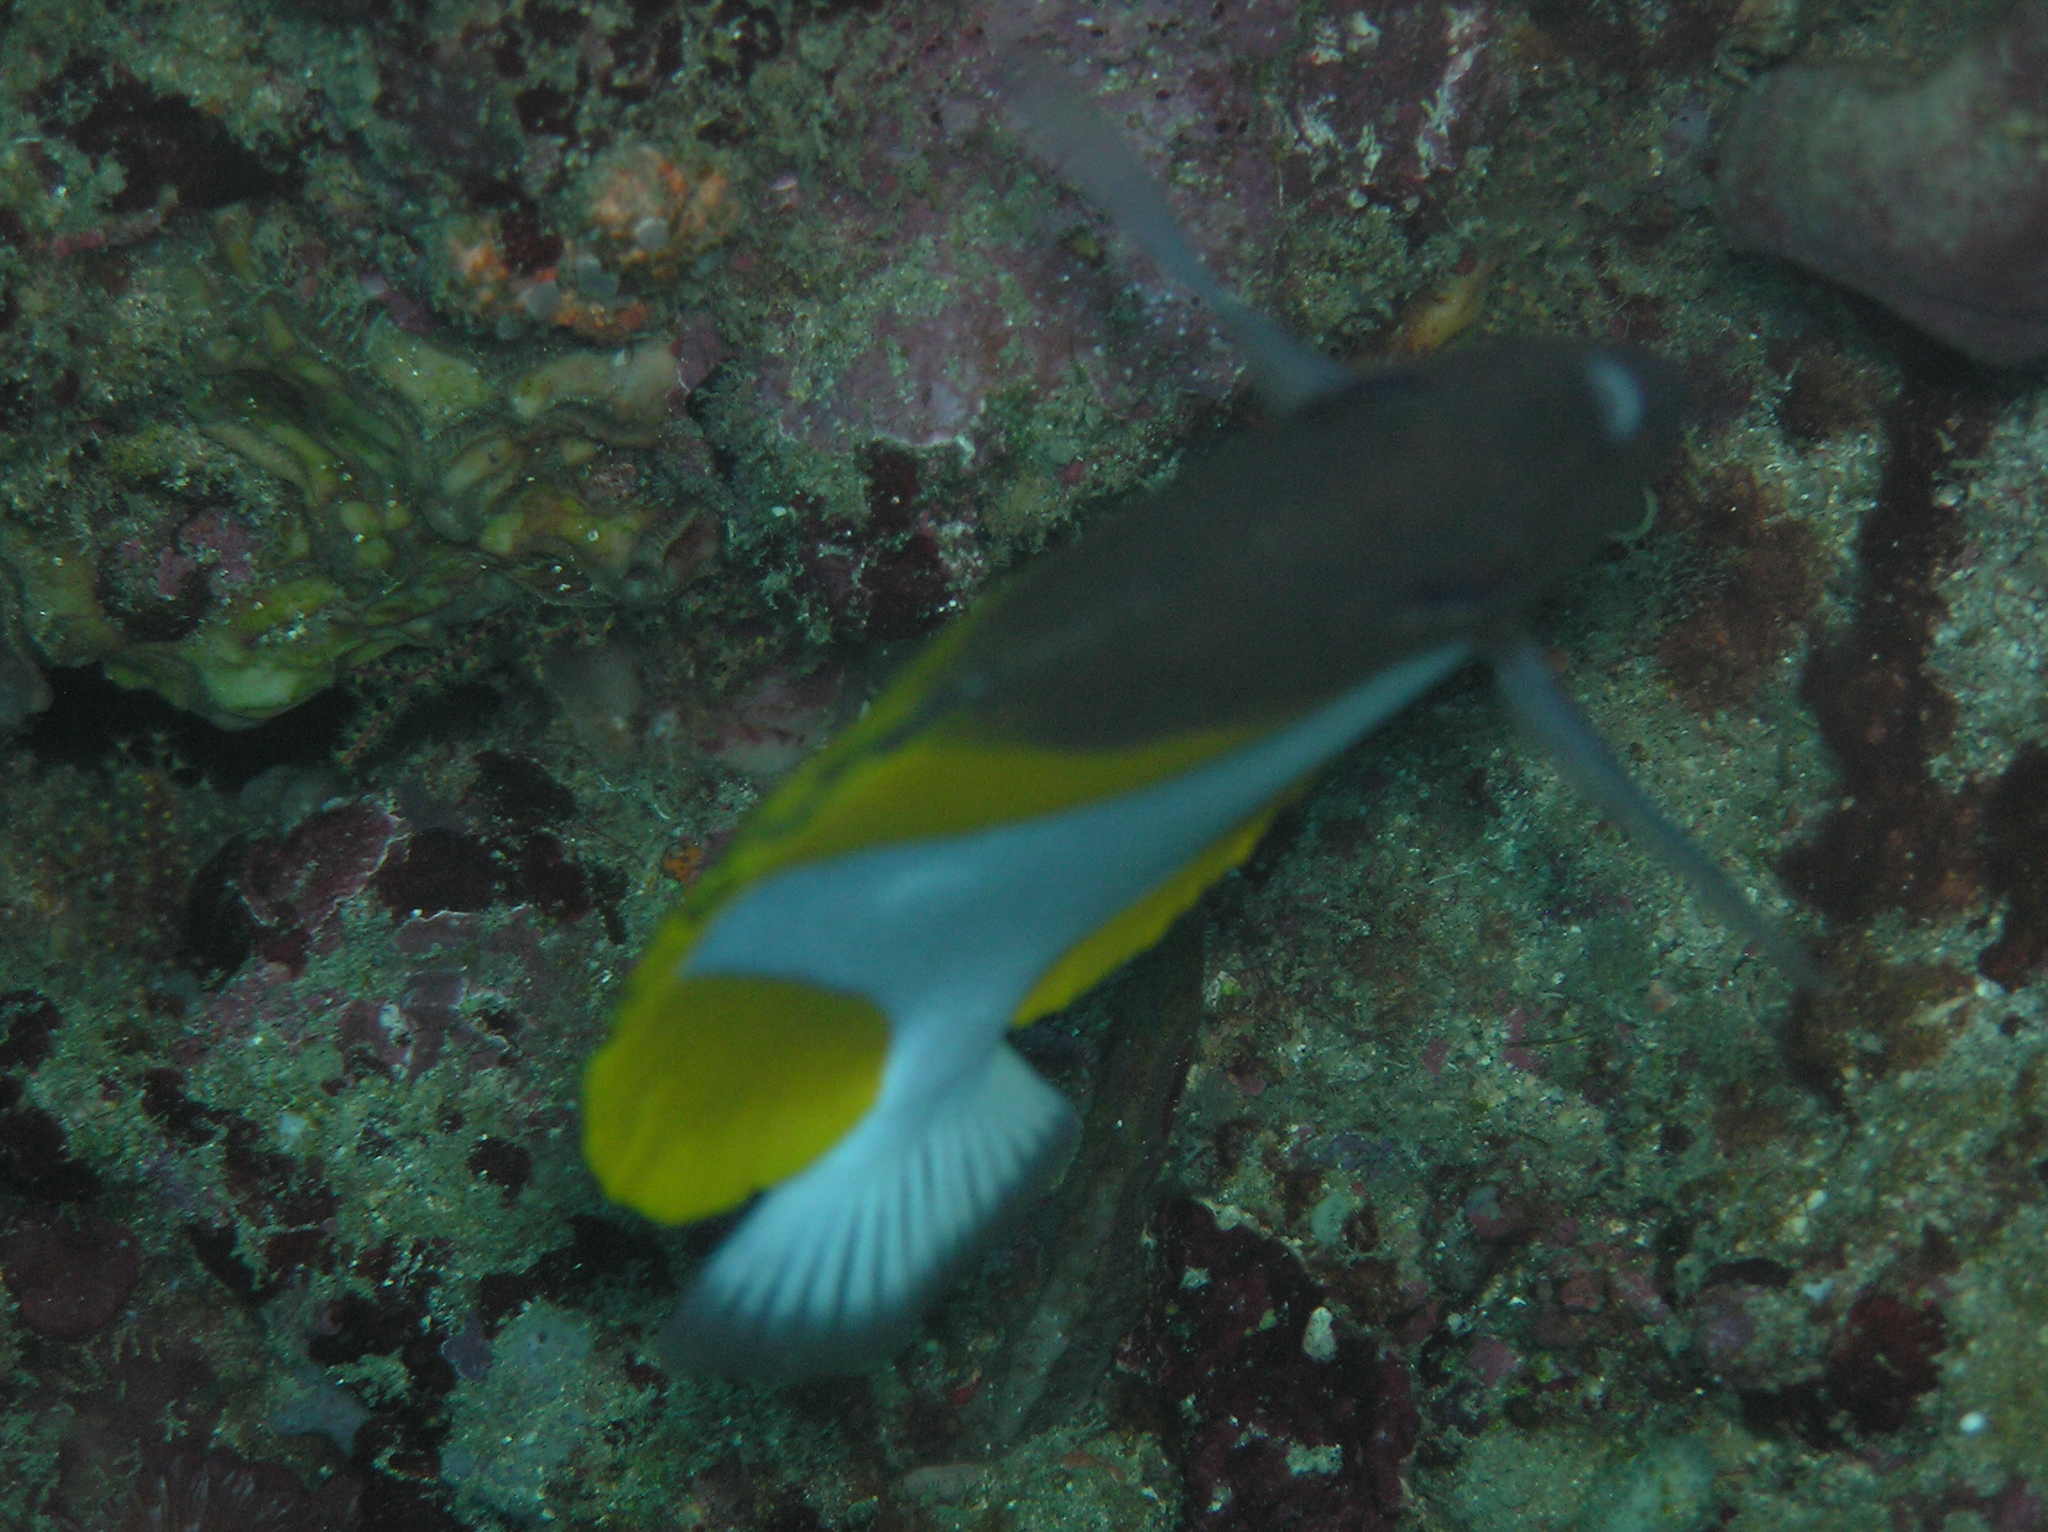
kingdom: Animalia
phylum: Chordata
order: Perciformes
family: Chaetodontidae
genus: Hemitaurichthys
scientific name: Hemitaurichthys polylepis
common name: Brushytoothed butterflyfish
